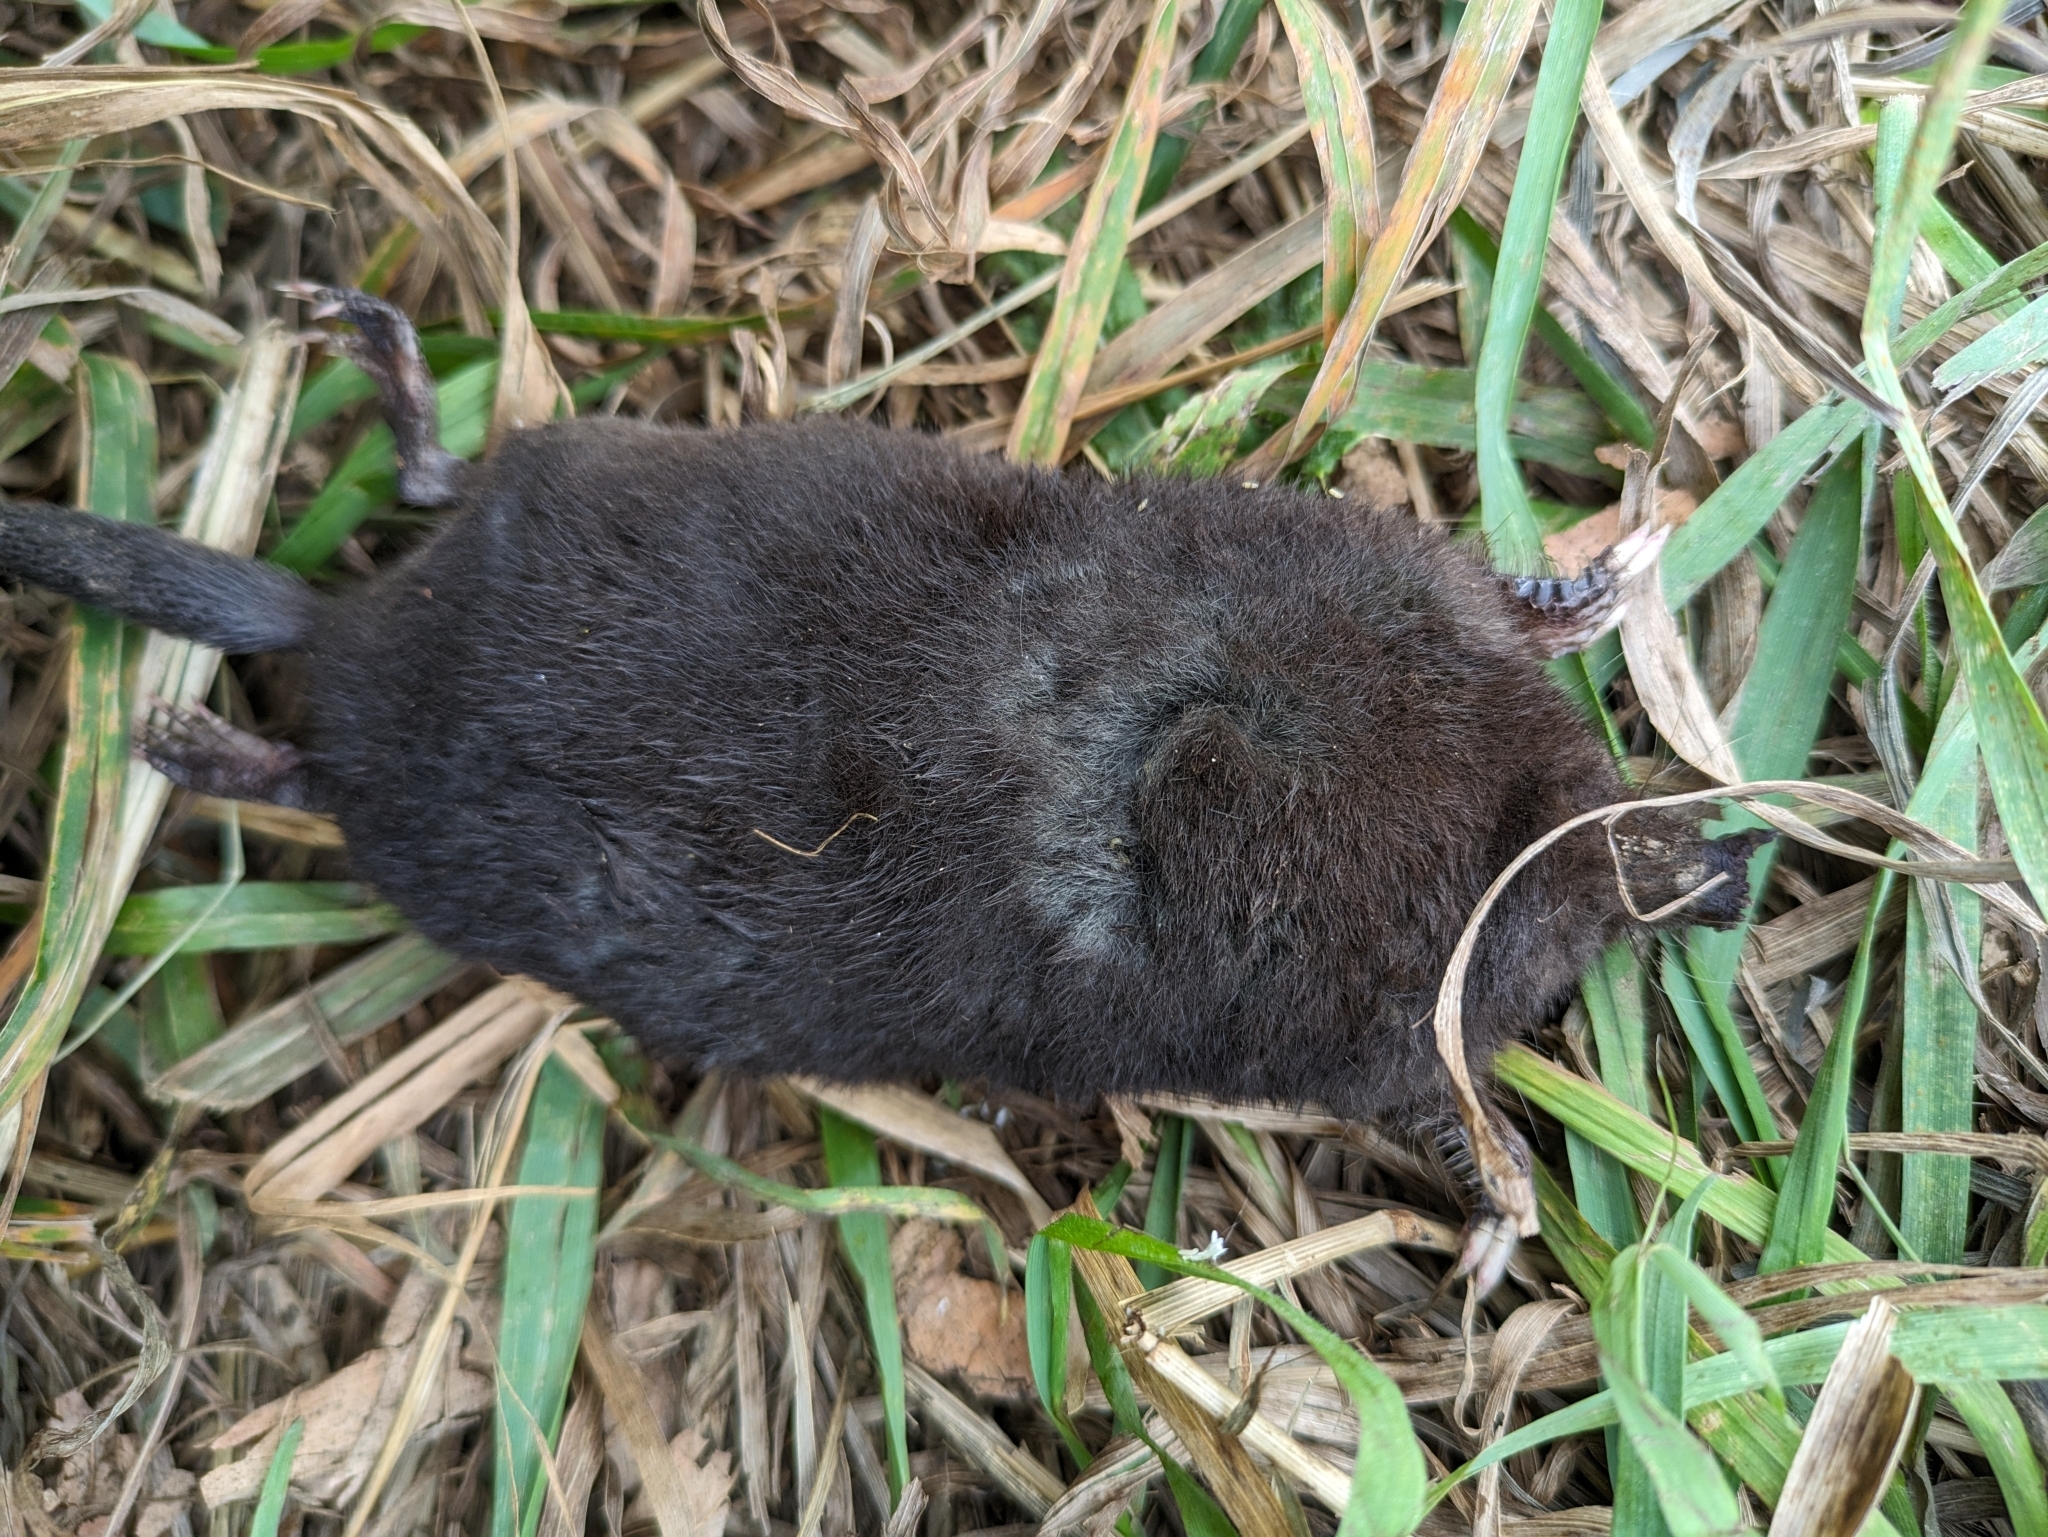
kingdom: Animalia
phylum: Chordata
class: Mammalia
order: Soricomorpha
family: Talpidae
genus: Condylura
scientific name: Condylura cristata
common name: Star-nosed mole
